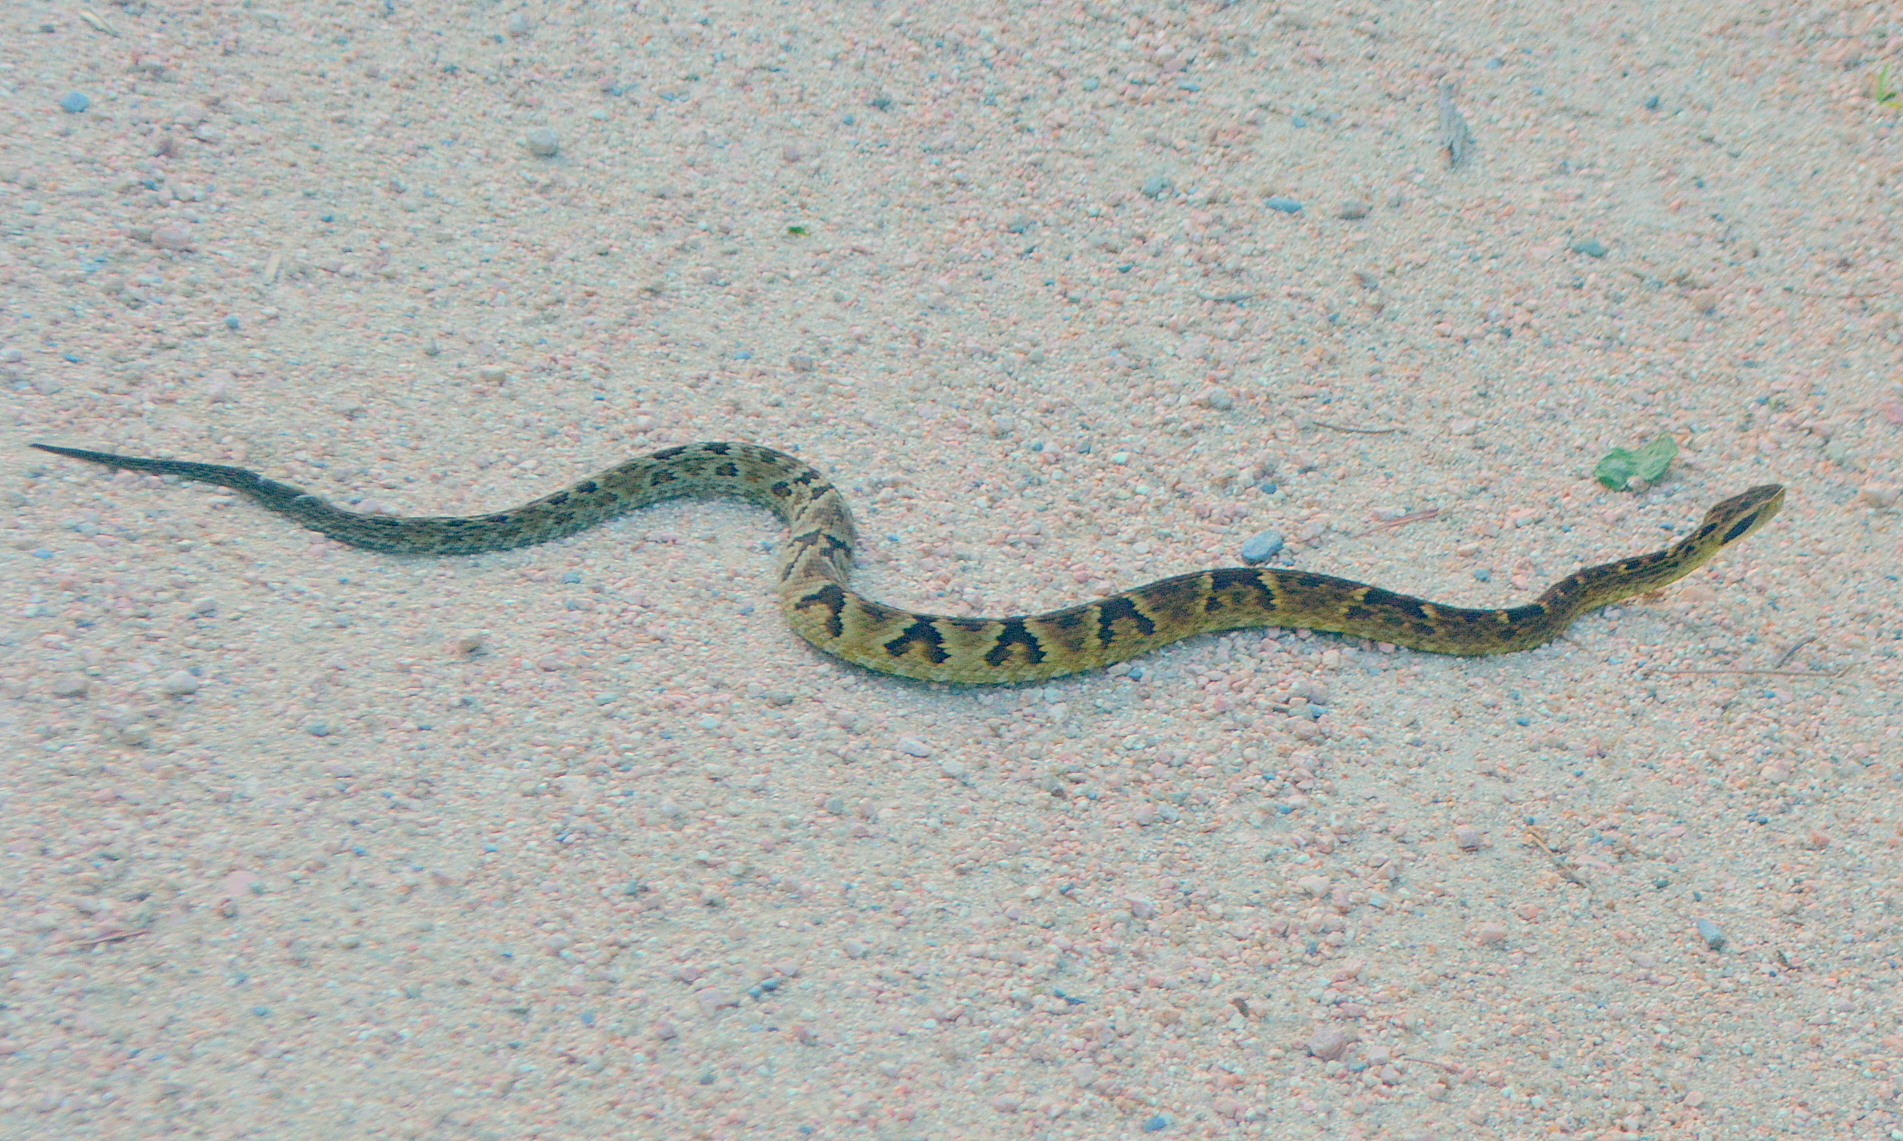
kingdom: Animalia
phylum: Chordata
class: Squamata
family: Viperidae
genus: Bothrops
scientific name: Bothrops jararaca
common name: Jararaca
